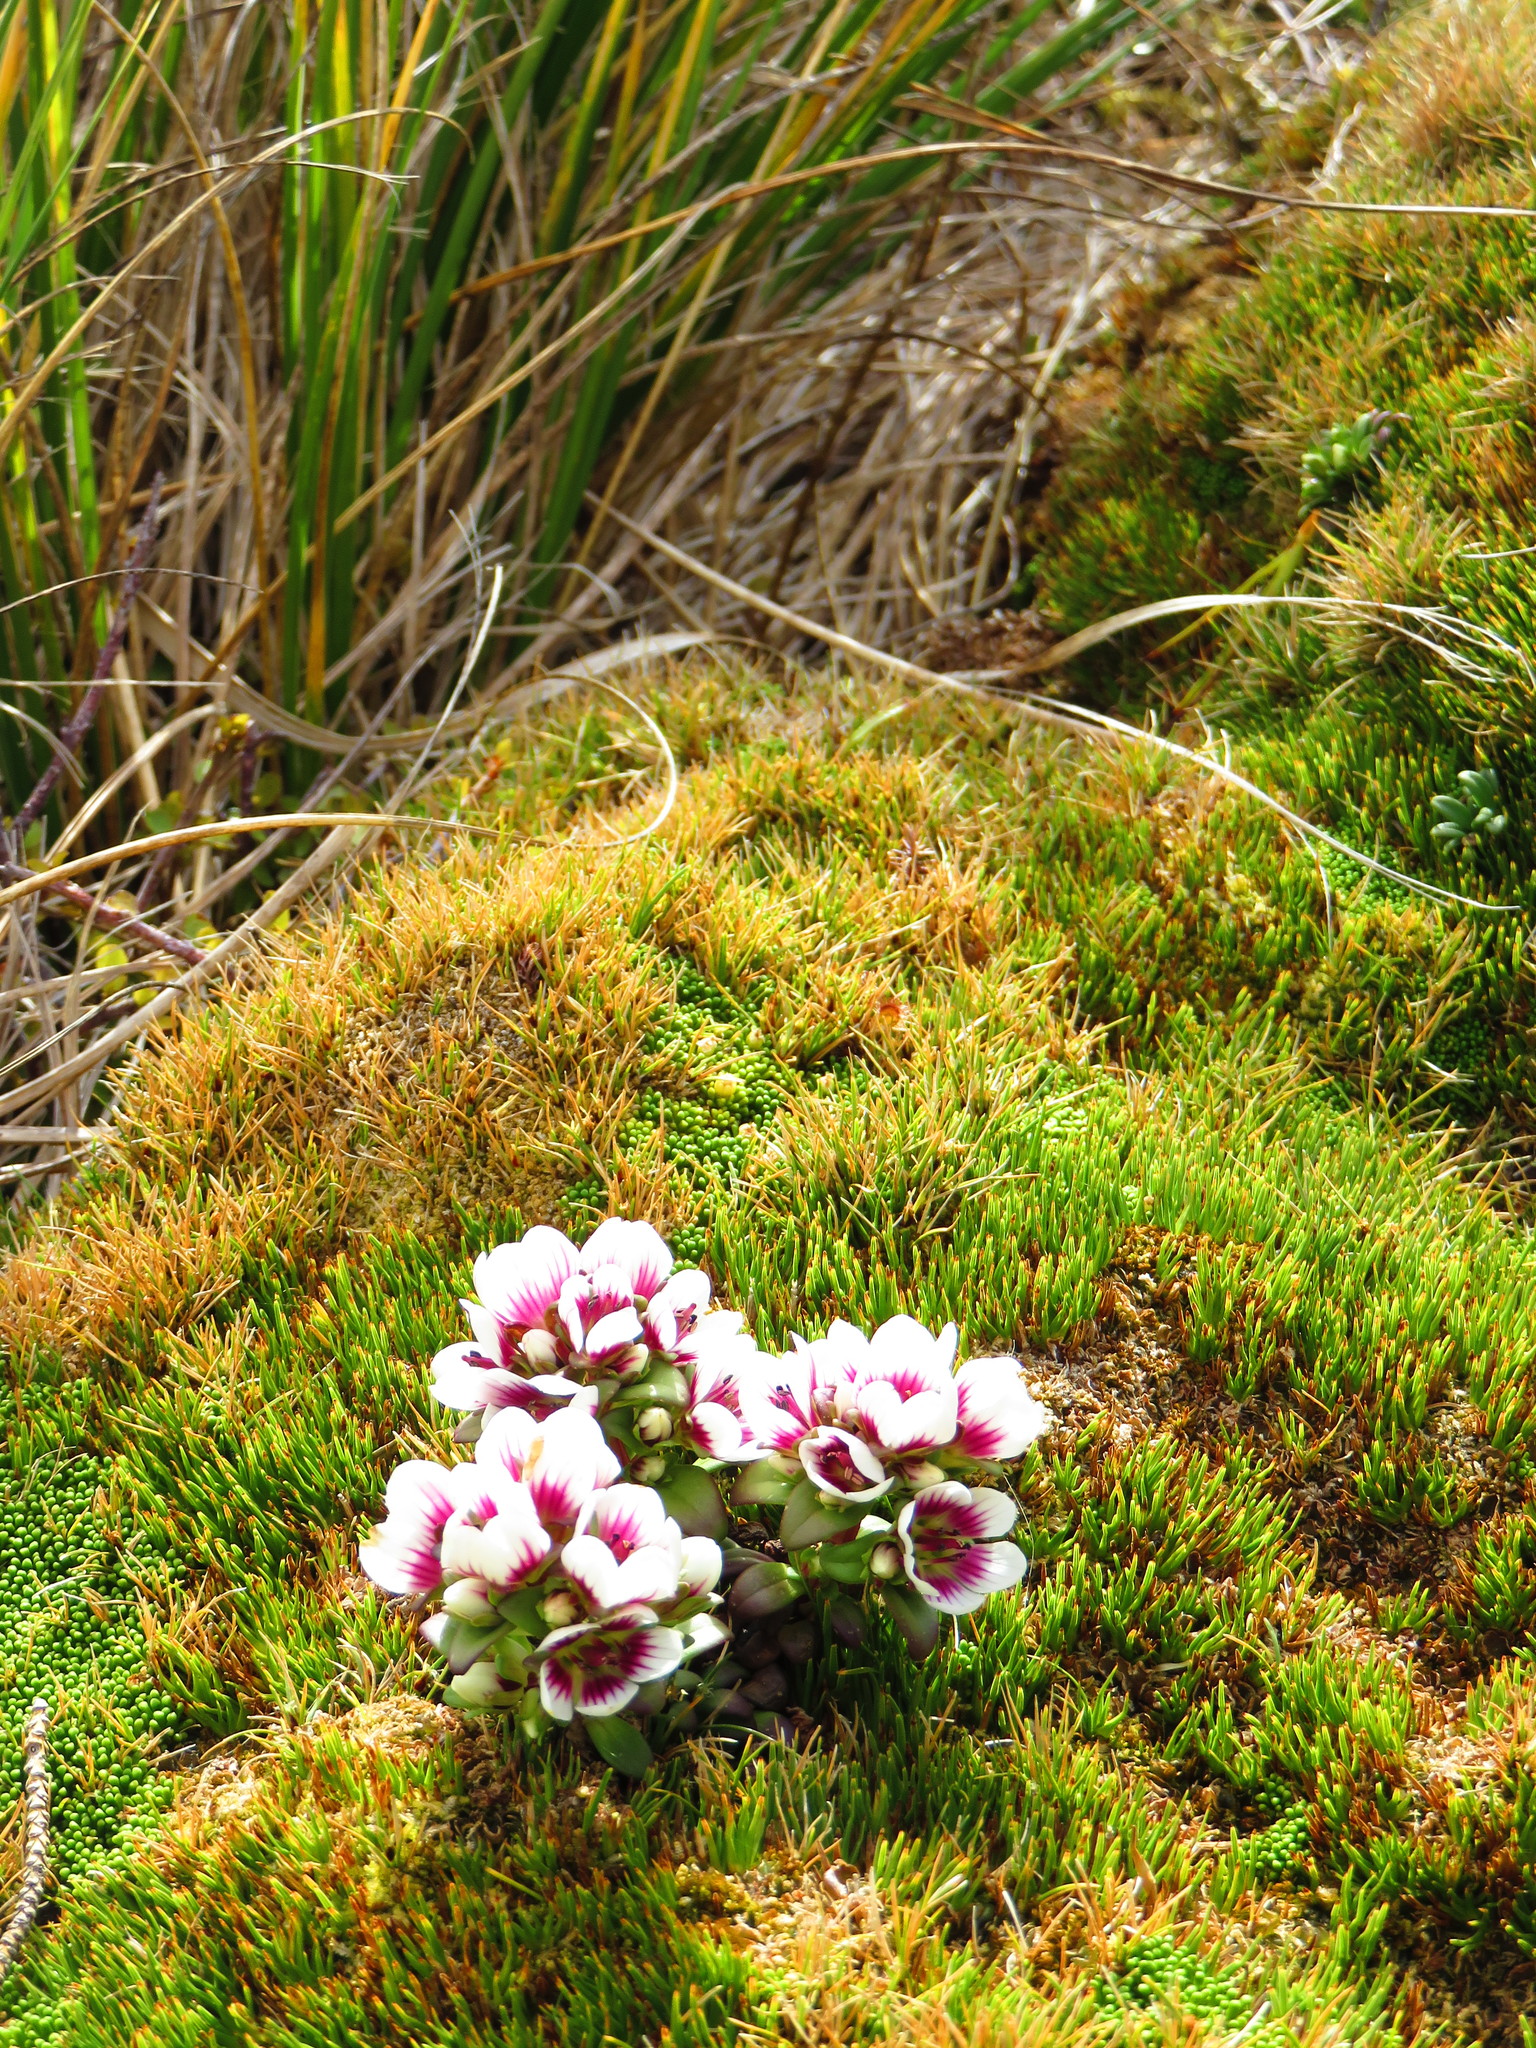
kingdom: Plantae
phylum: Tracheophyta
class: Magnoliopsida
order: Gentianales
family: Gentianaceae
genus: Gentianella
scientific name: Gentianella cerina
